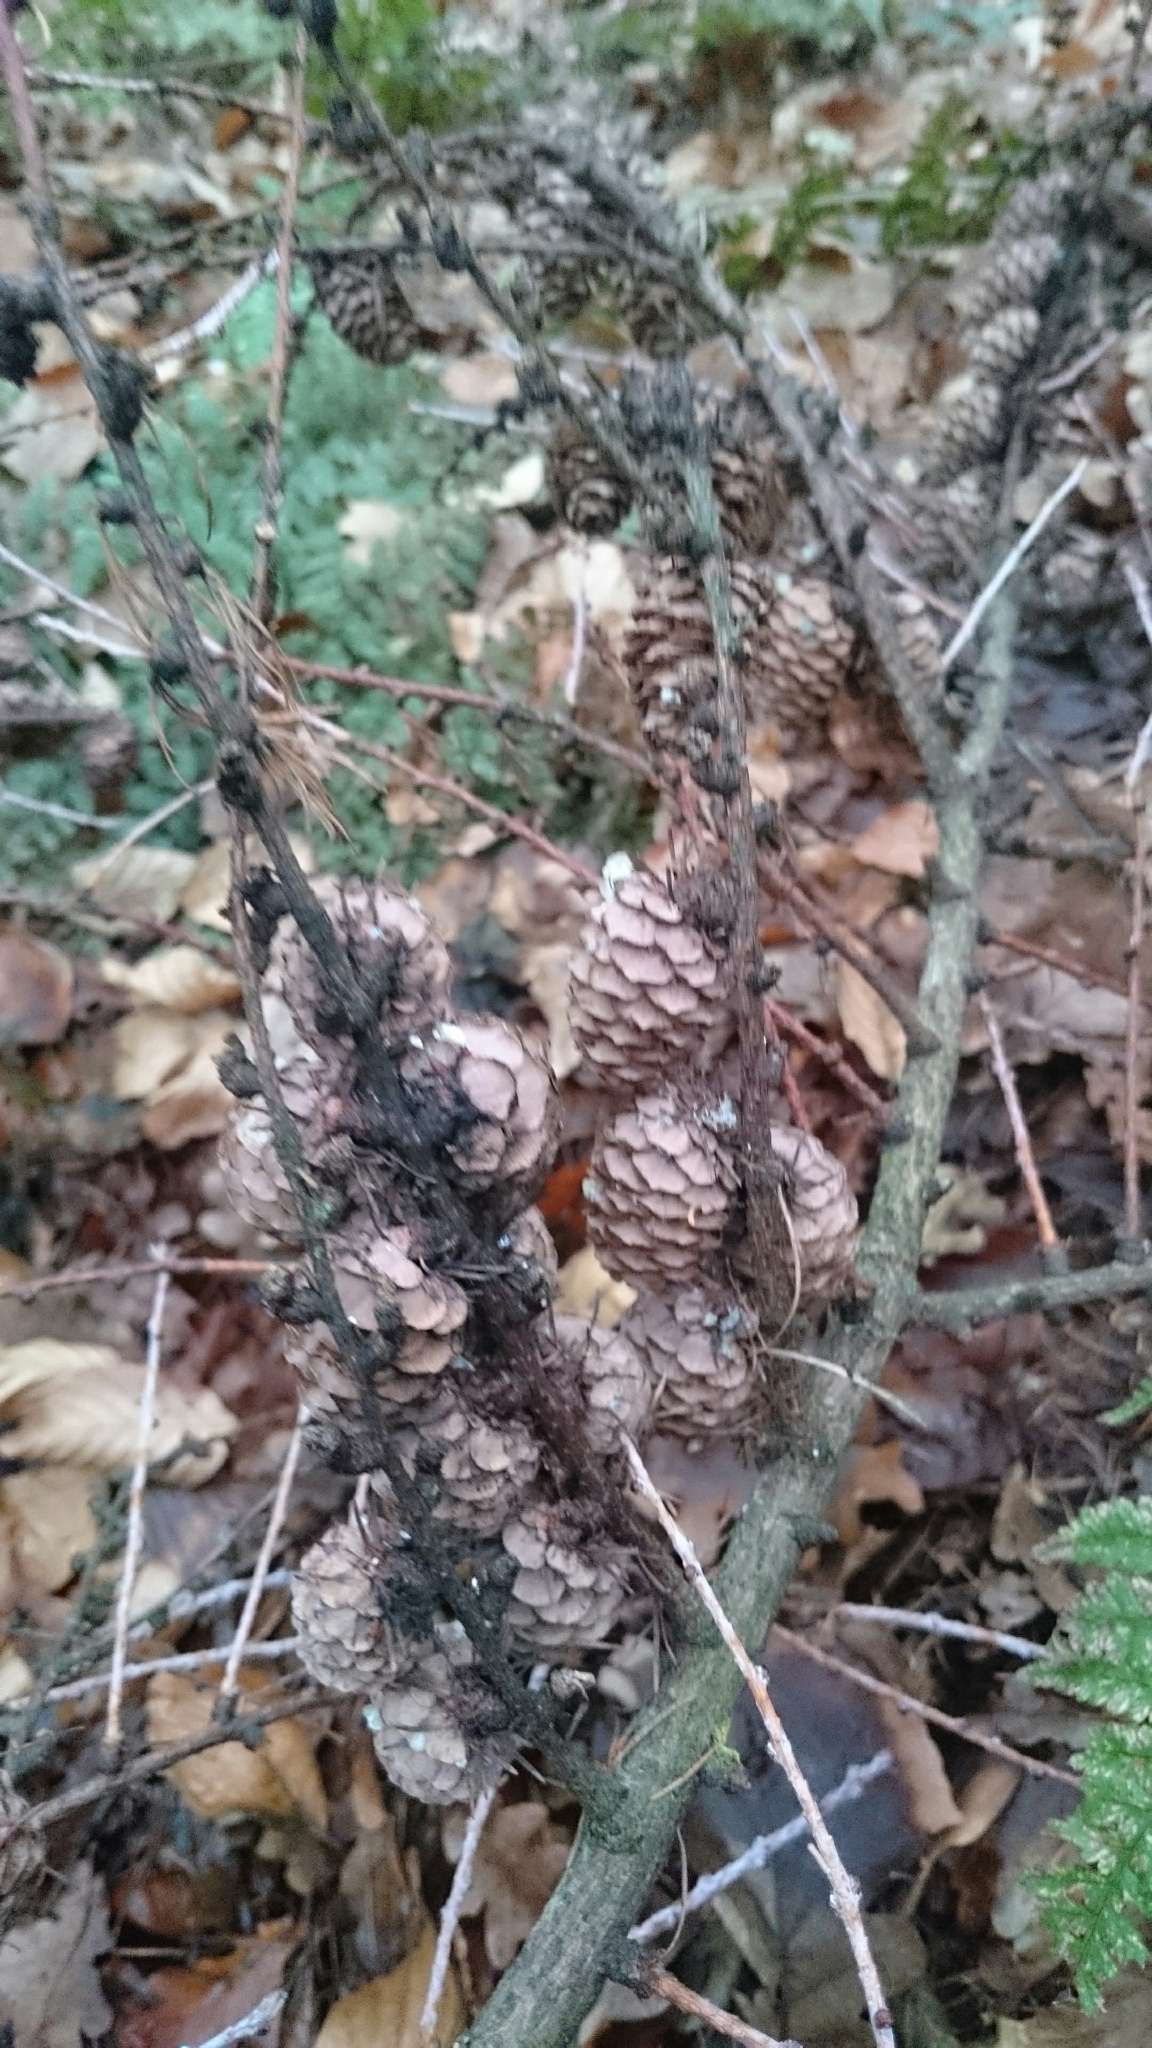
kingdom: Plantae
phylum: Tracheophyta
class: Pinopsida
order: Pinales
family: Pinaceae
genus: Larix
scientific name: Larix decidua
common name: European larch
